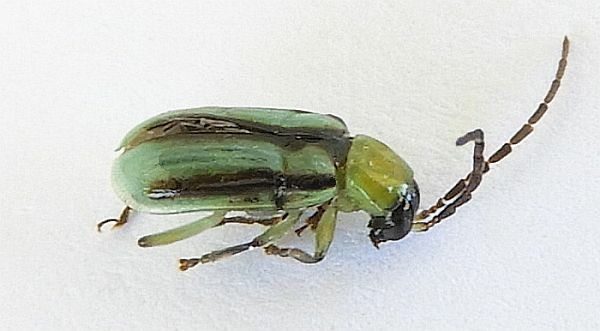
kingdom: Animalia
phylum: Arthropoda
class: Insecta
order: Coleoptera
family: Chrysomelidae
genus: Diabrotica
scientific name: Diabrotica longicornis
